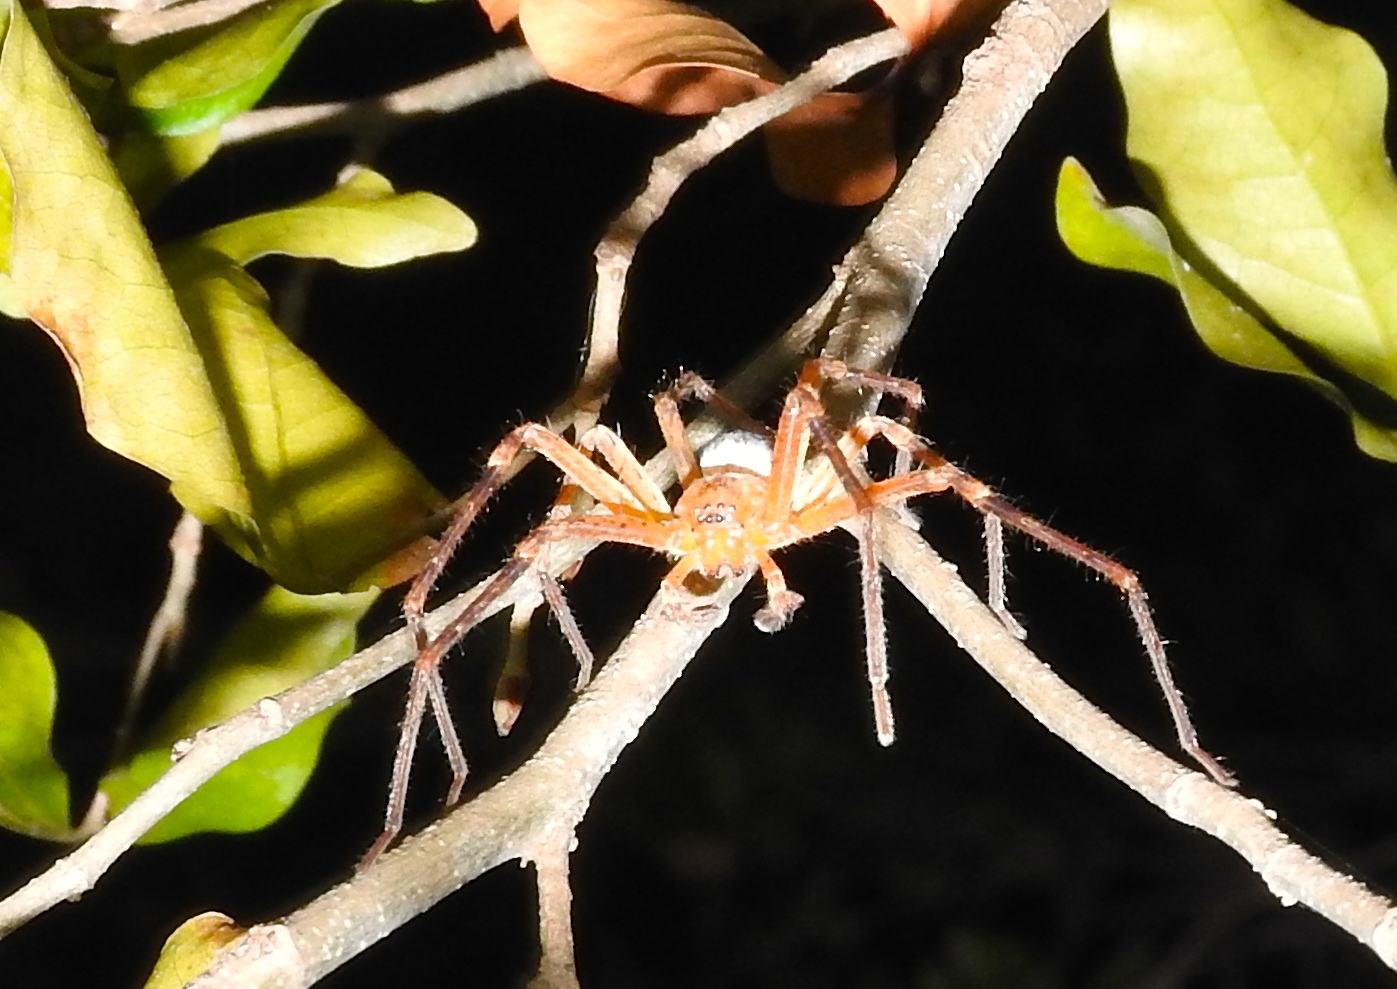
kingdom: Animalia
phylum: Arthropoda
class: Arachnida
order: Araneae
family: Sparassidae
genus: Curicaberis
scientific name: Curicaberis culiacan
